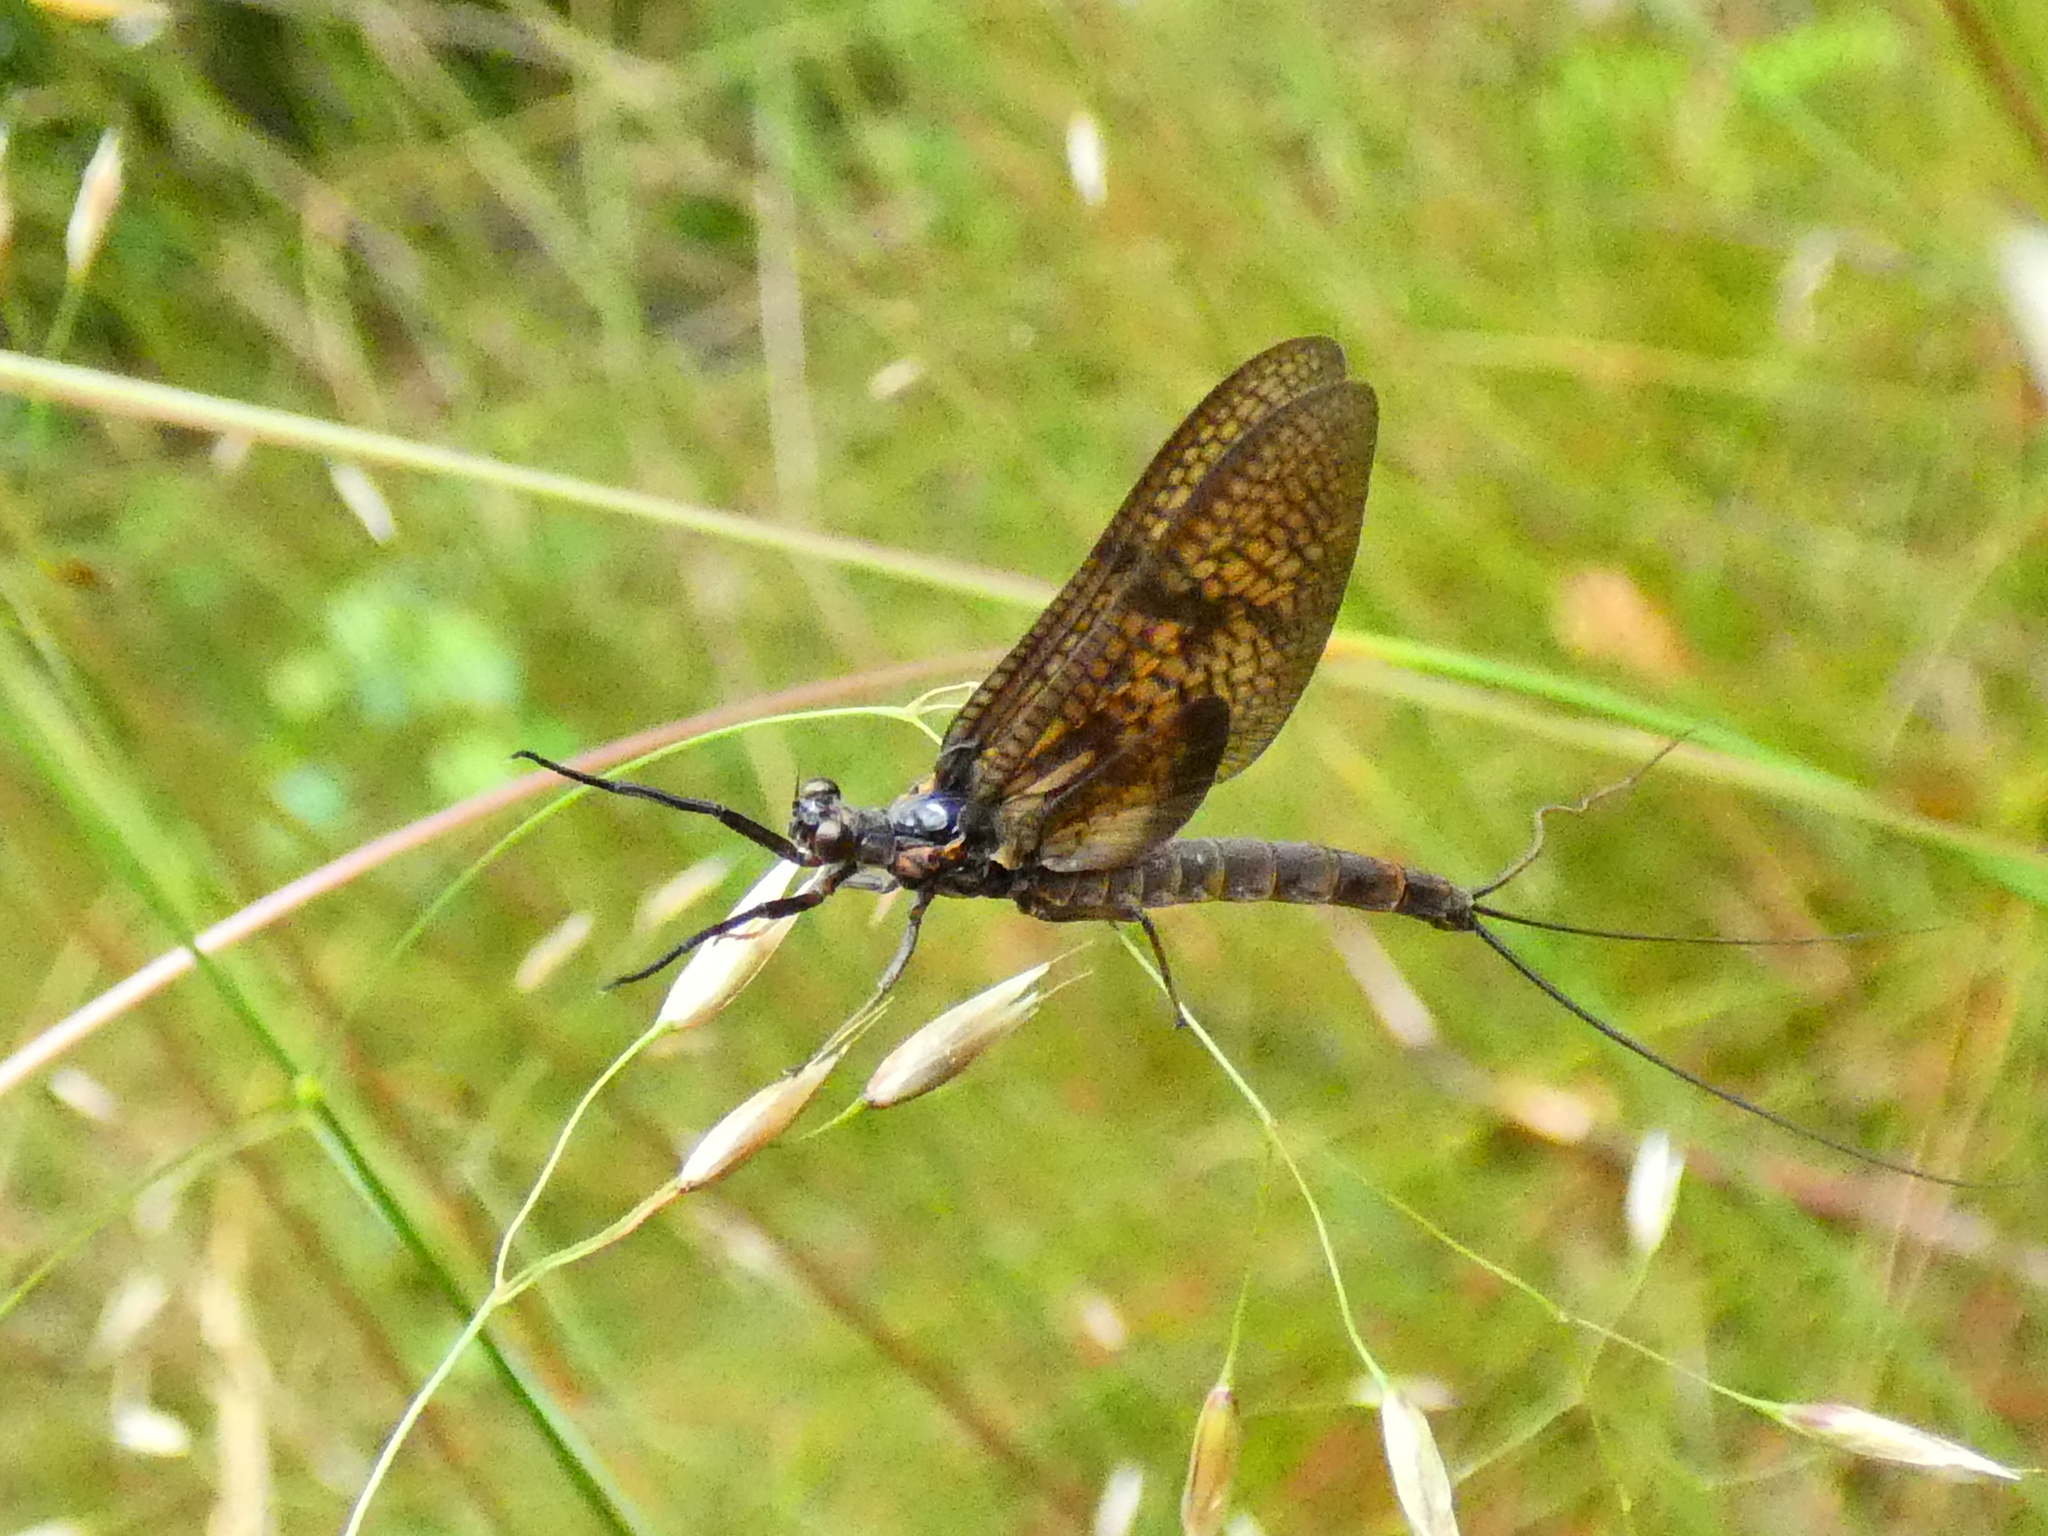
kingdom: Animalia
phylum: Arthropoda
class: Insecta
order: Ephemeroptera
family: Ephemeridae
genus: Ephemera
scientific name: Ephemera vulgata
